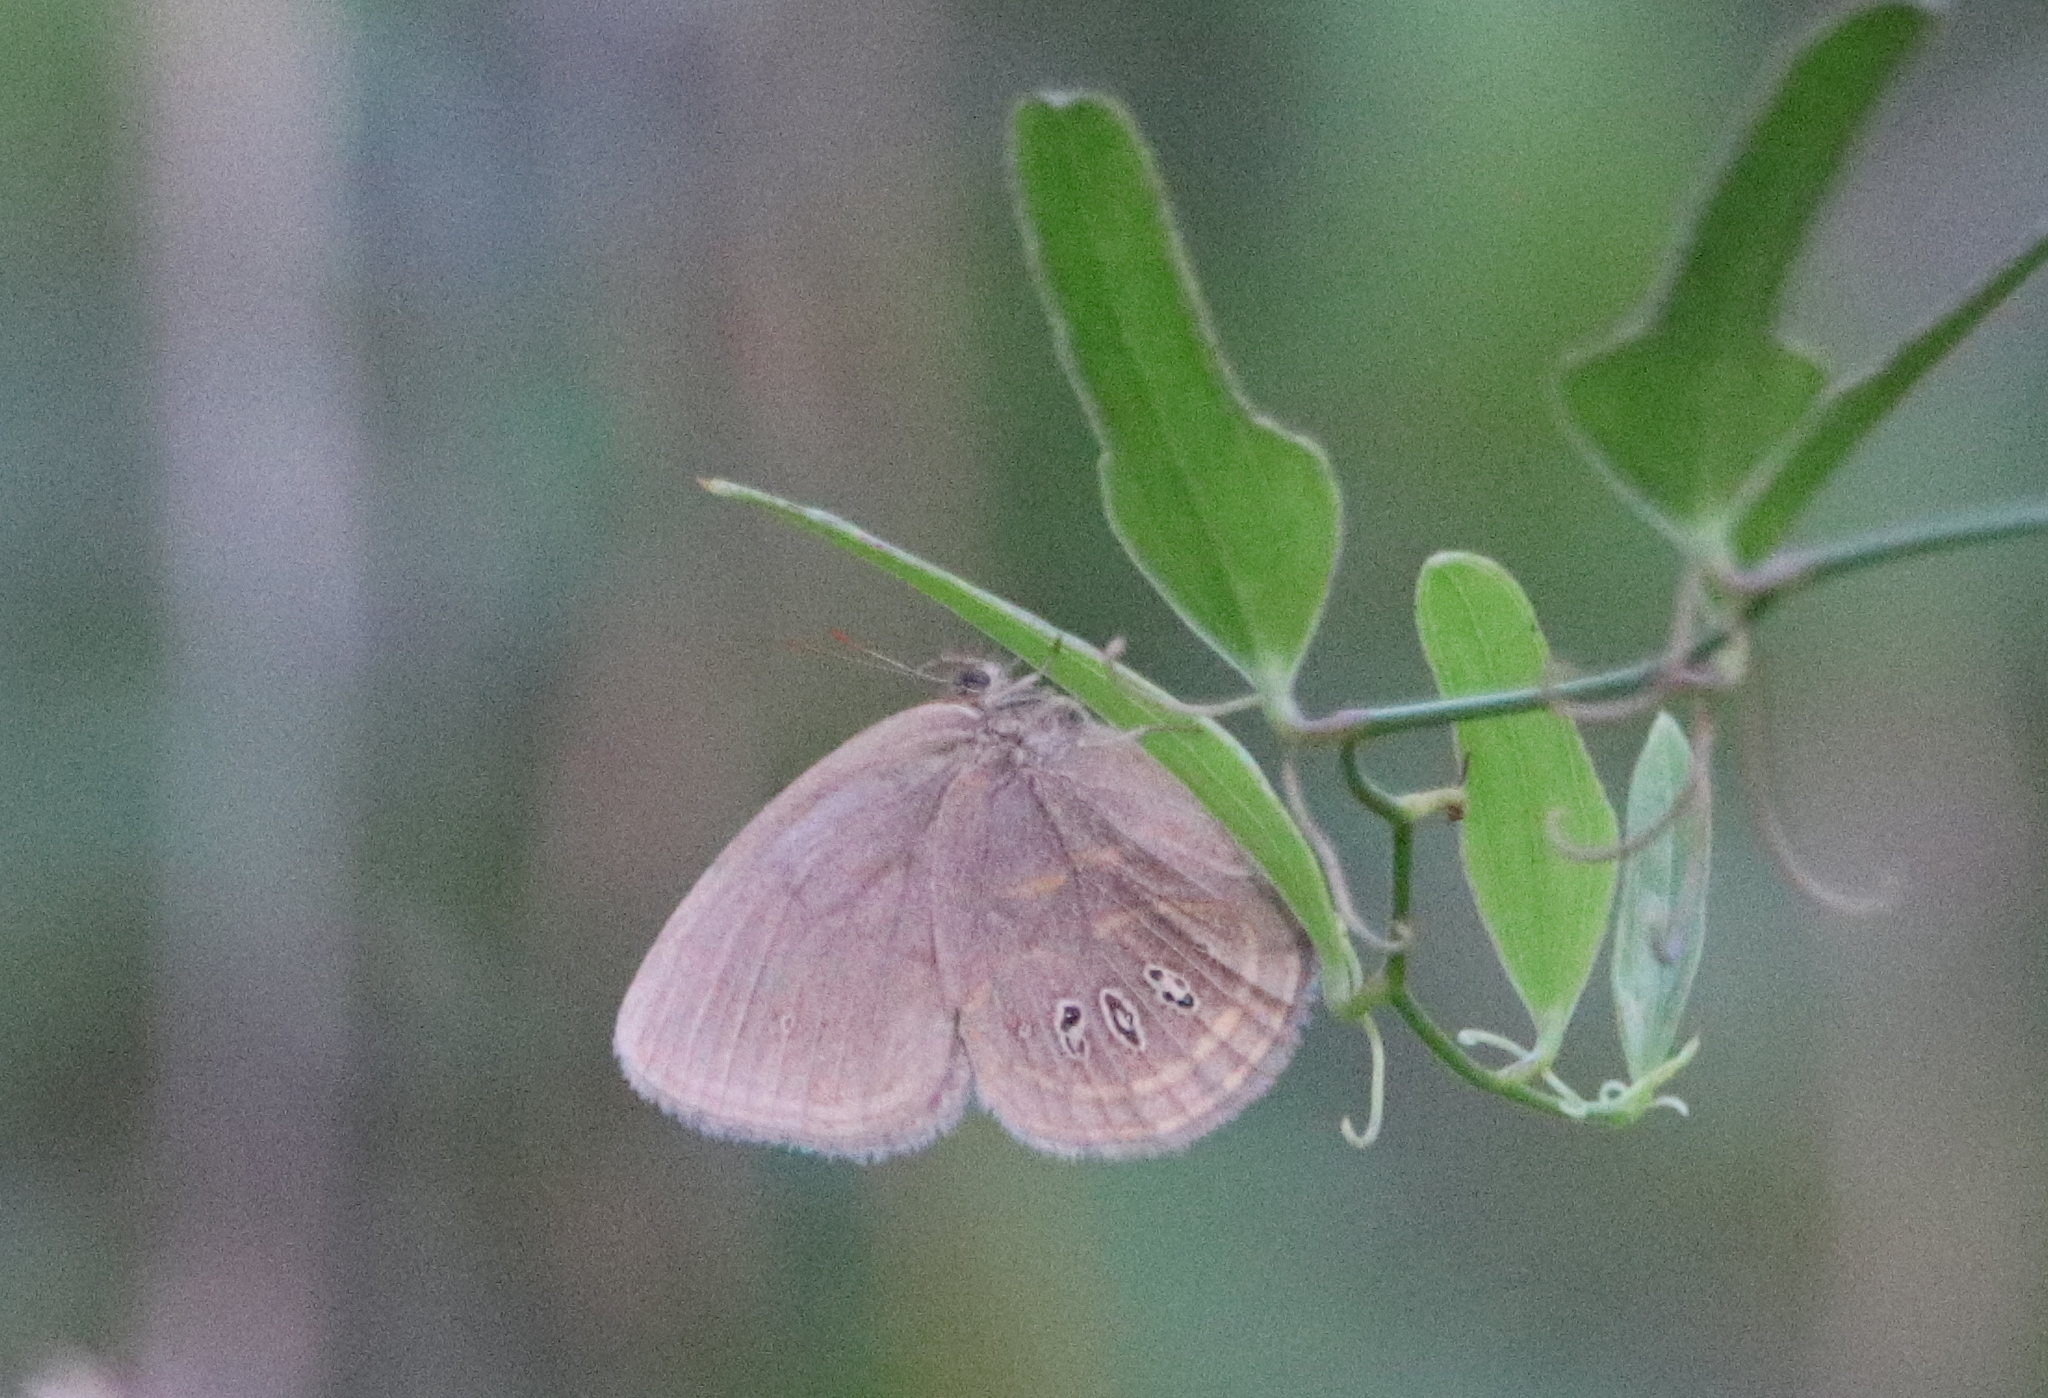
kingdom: Animalia
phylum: Arthropoda
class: Insecta
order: Lepidoptera
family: Nymphalidae
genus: Euptychia
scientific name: Euptychia phocion
